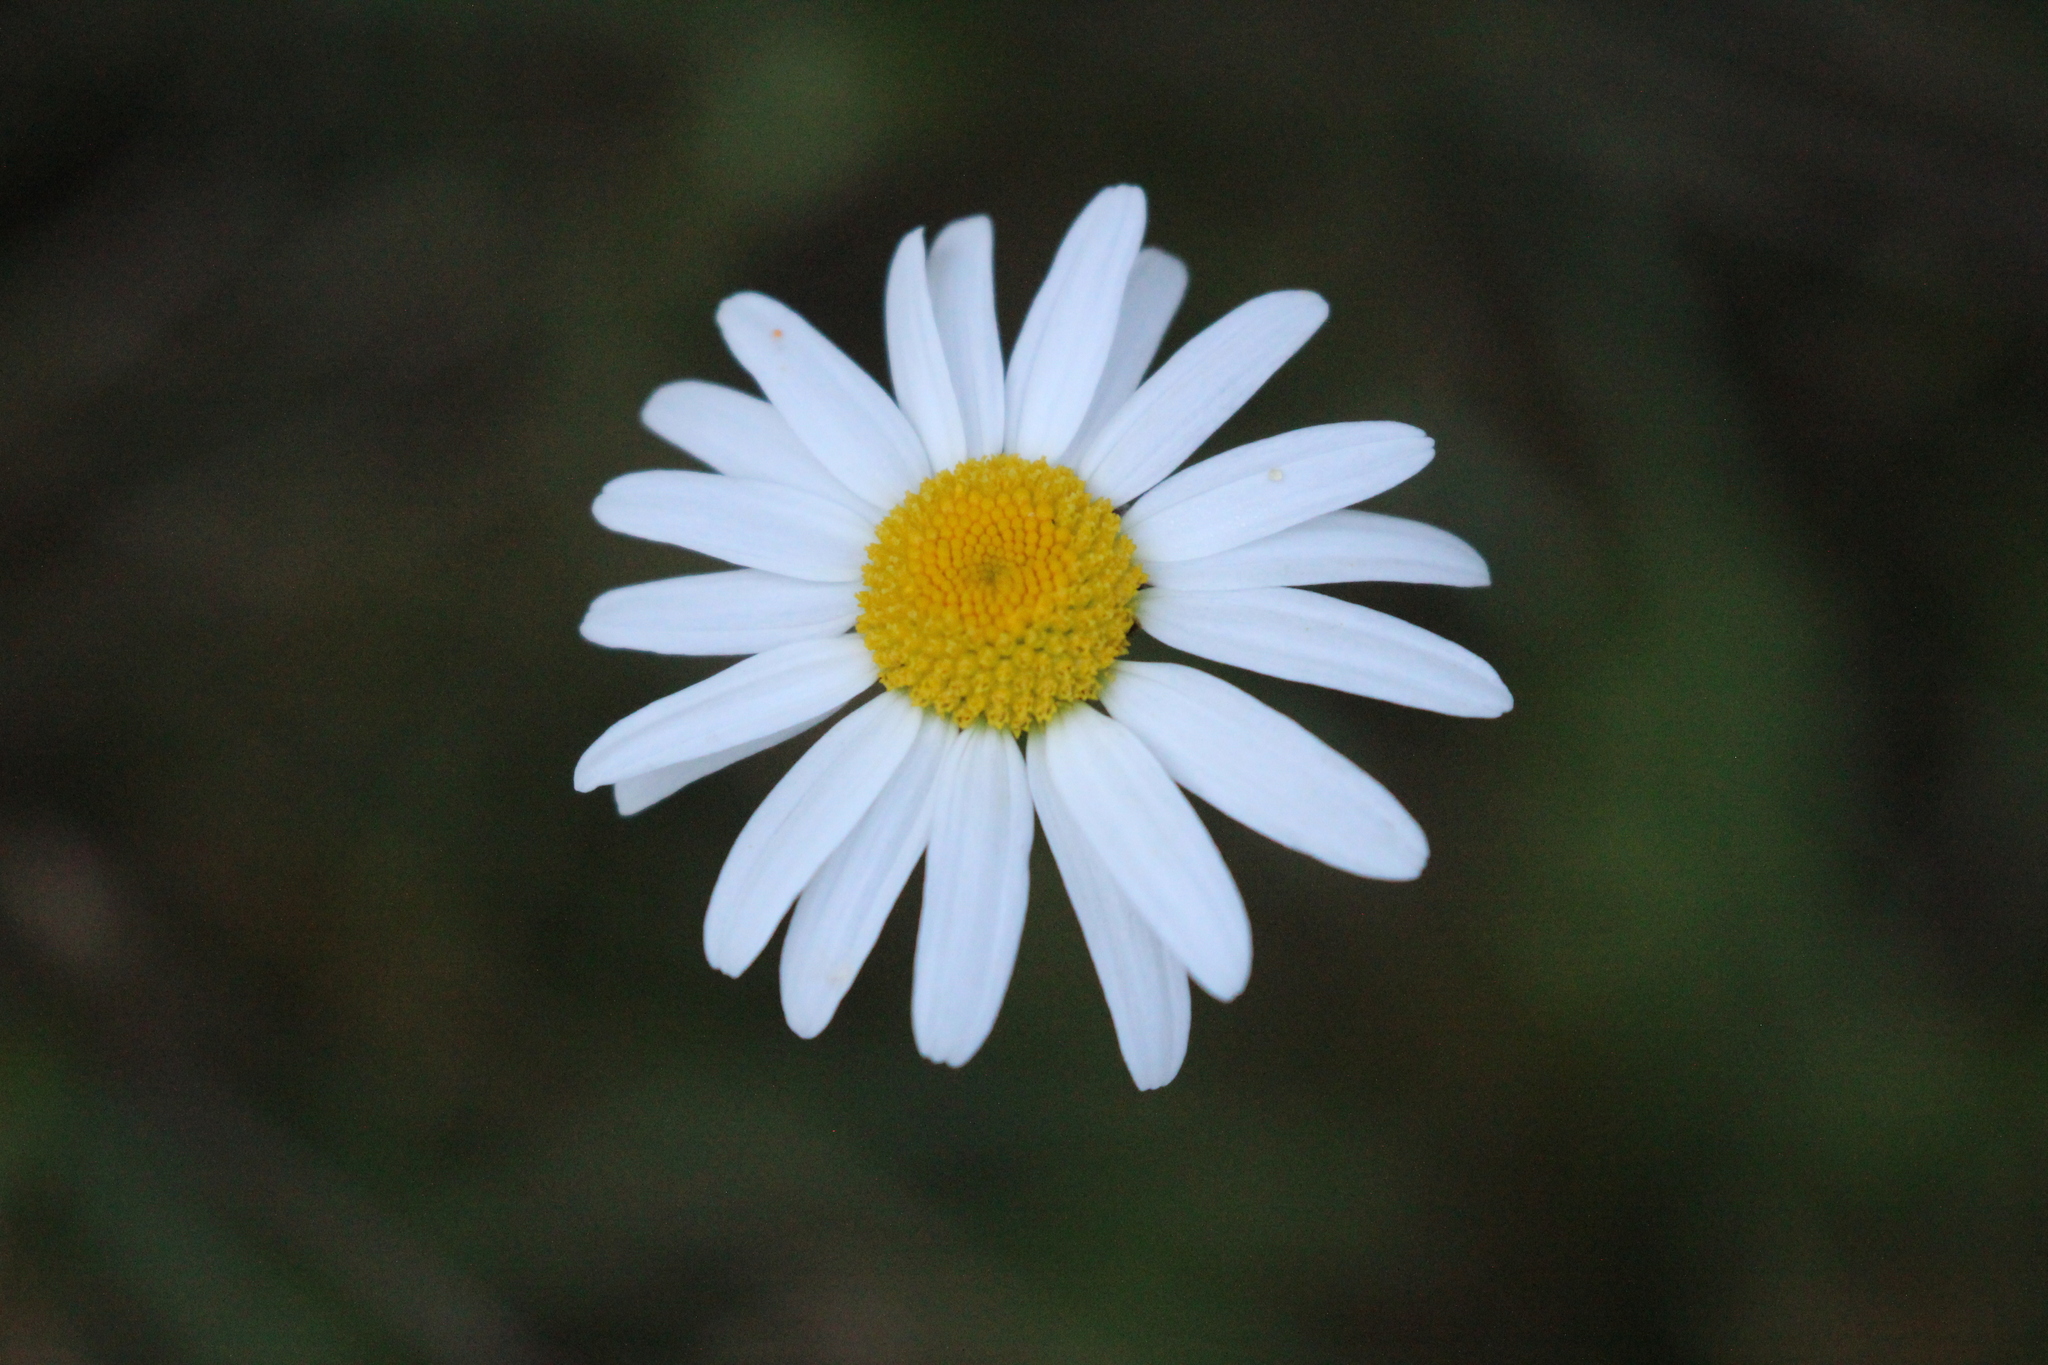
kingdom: Plantae
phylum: Tracheophyta
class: Magnoliopsida
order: Asterales
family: Asteraceae
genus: Leucanthemum
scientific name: Leucanthemum vulgare
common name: Oxeye daisy
